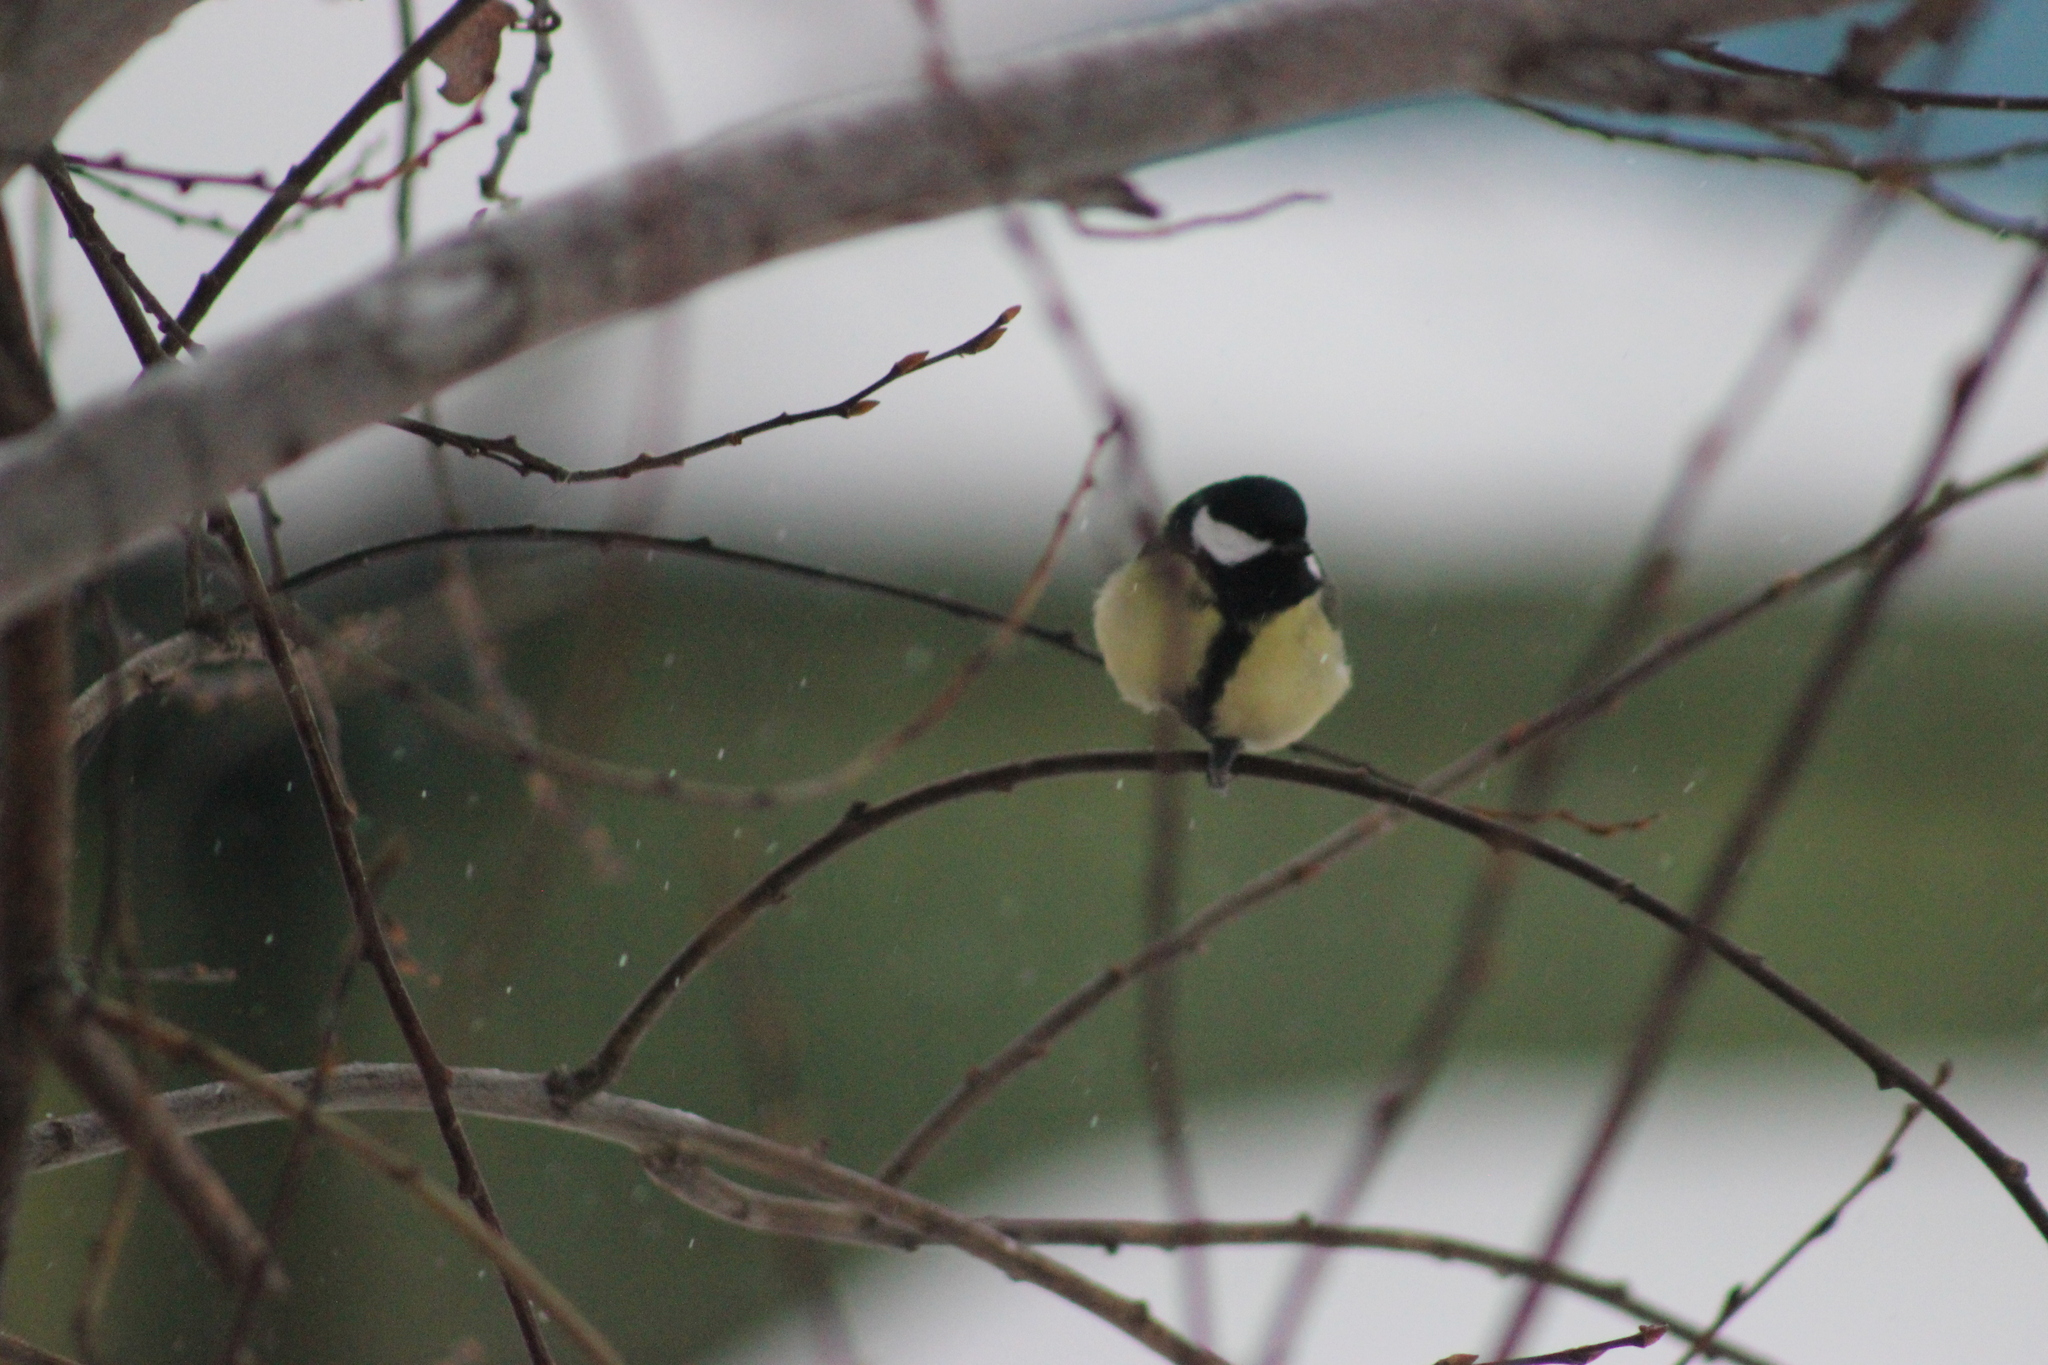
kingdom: Animalia
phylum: Chordata
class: Aves
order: Passeriformes
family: Paridae
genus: Parus
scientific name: Parus major
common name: Great tit
